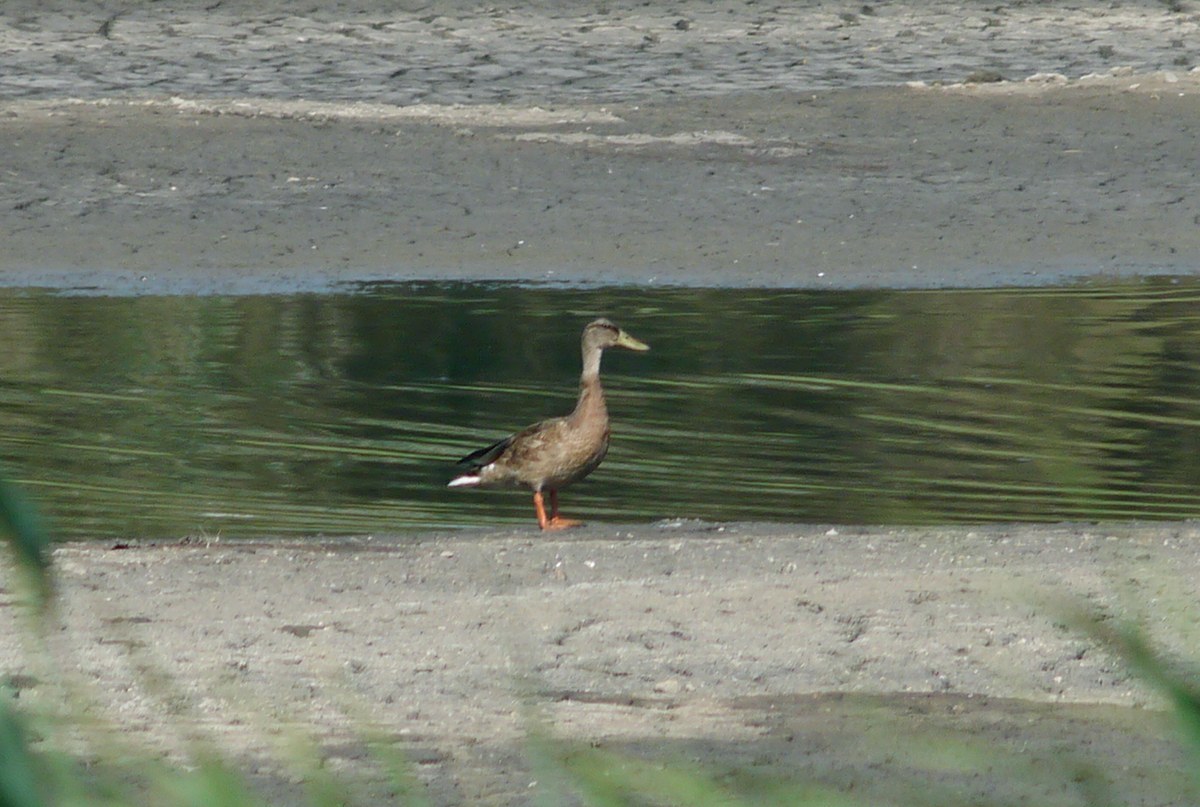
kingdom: Animalia
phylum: Chordata
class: Aves
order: Anseriformes
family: Anatidae
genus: Anas
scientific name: Anas platyrhynchos
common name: Mallard
